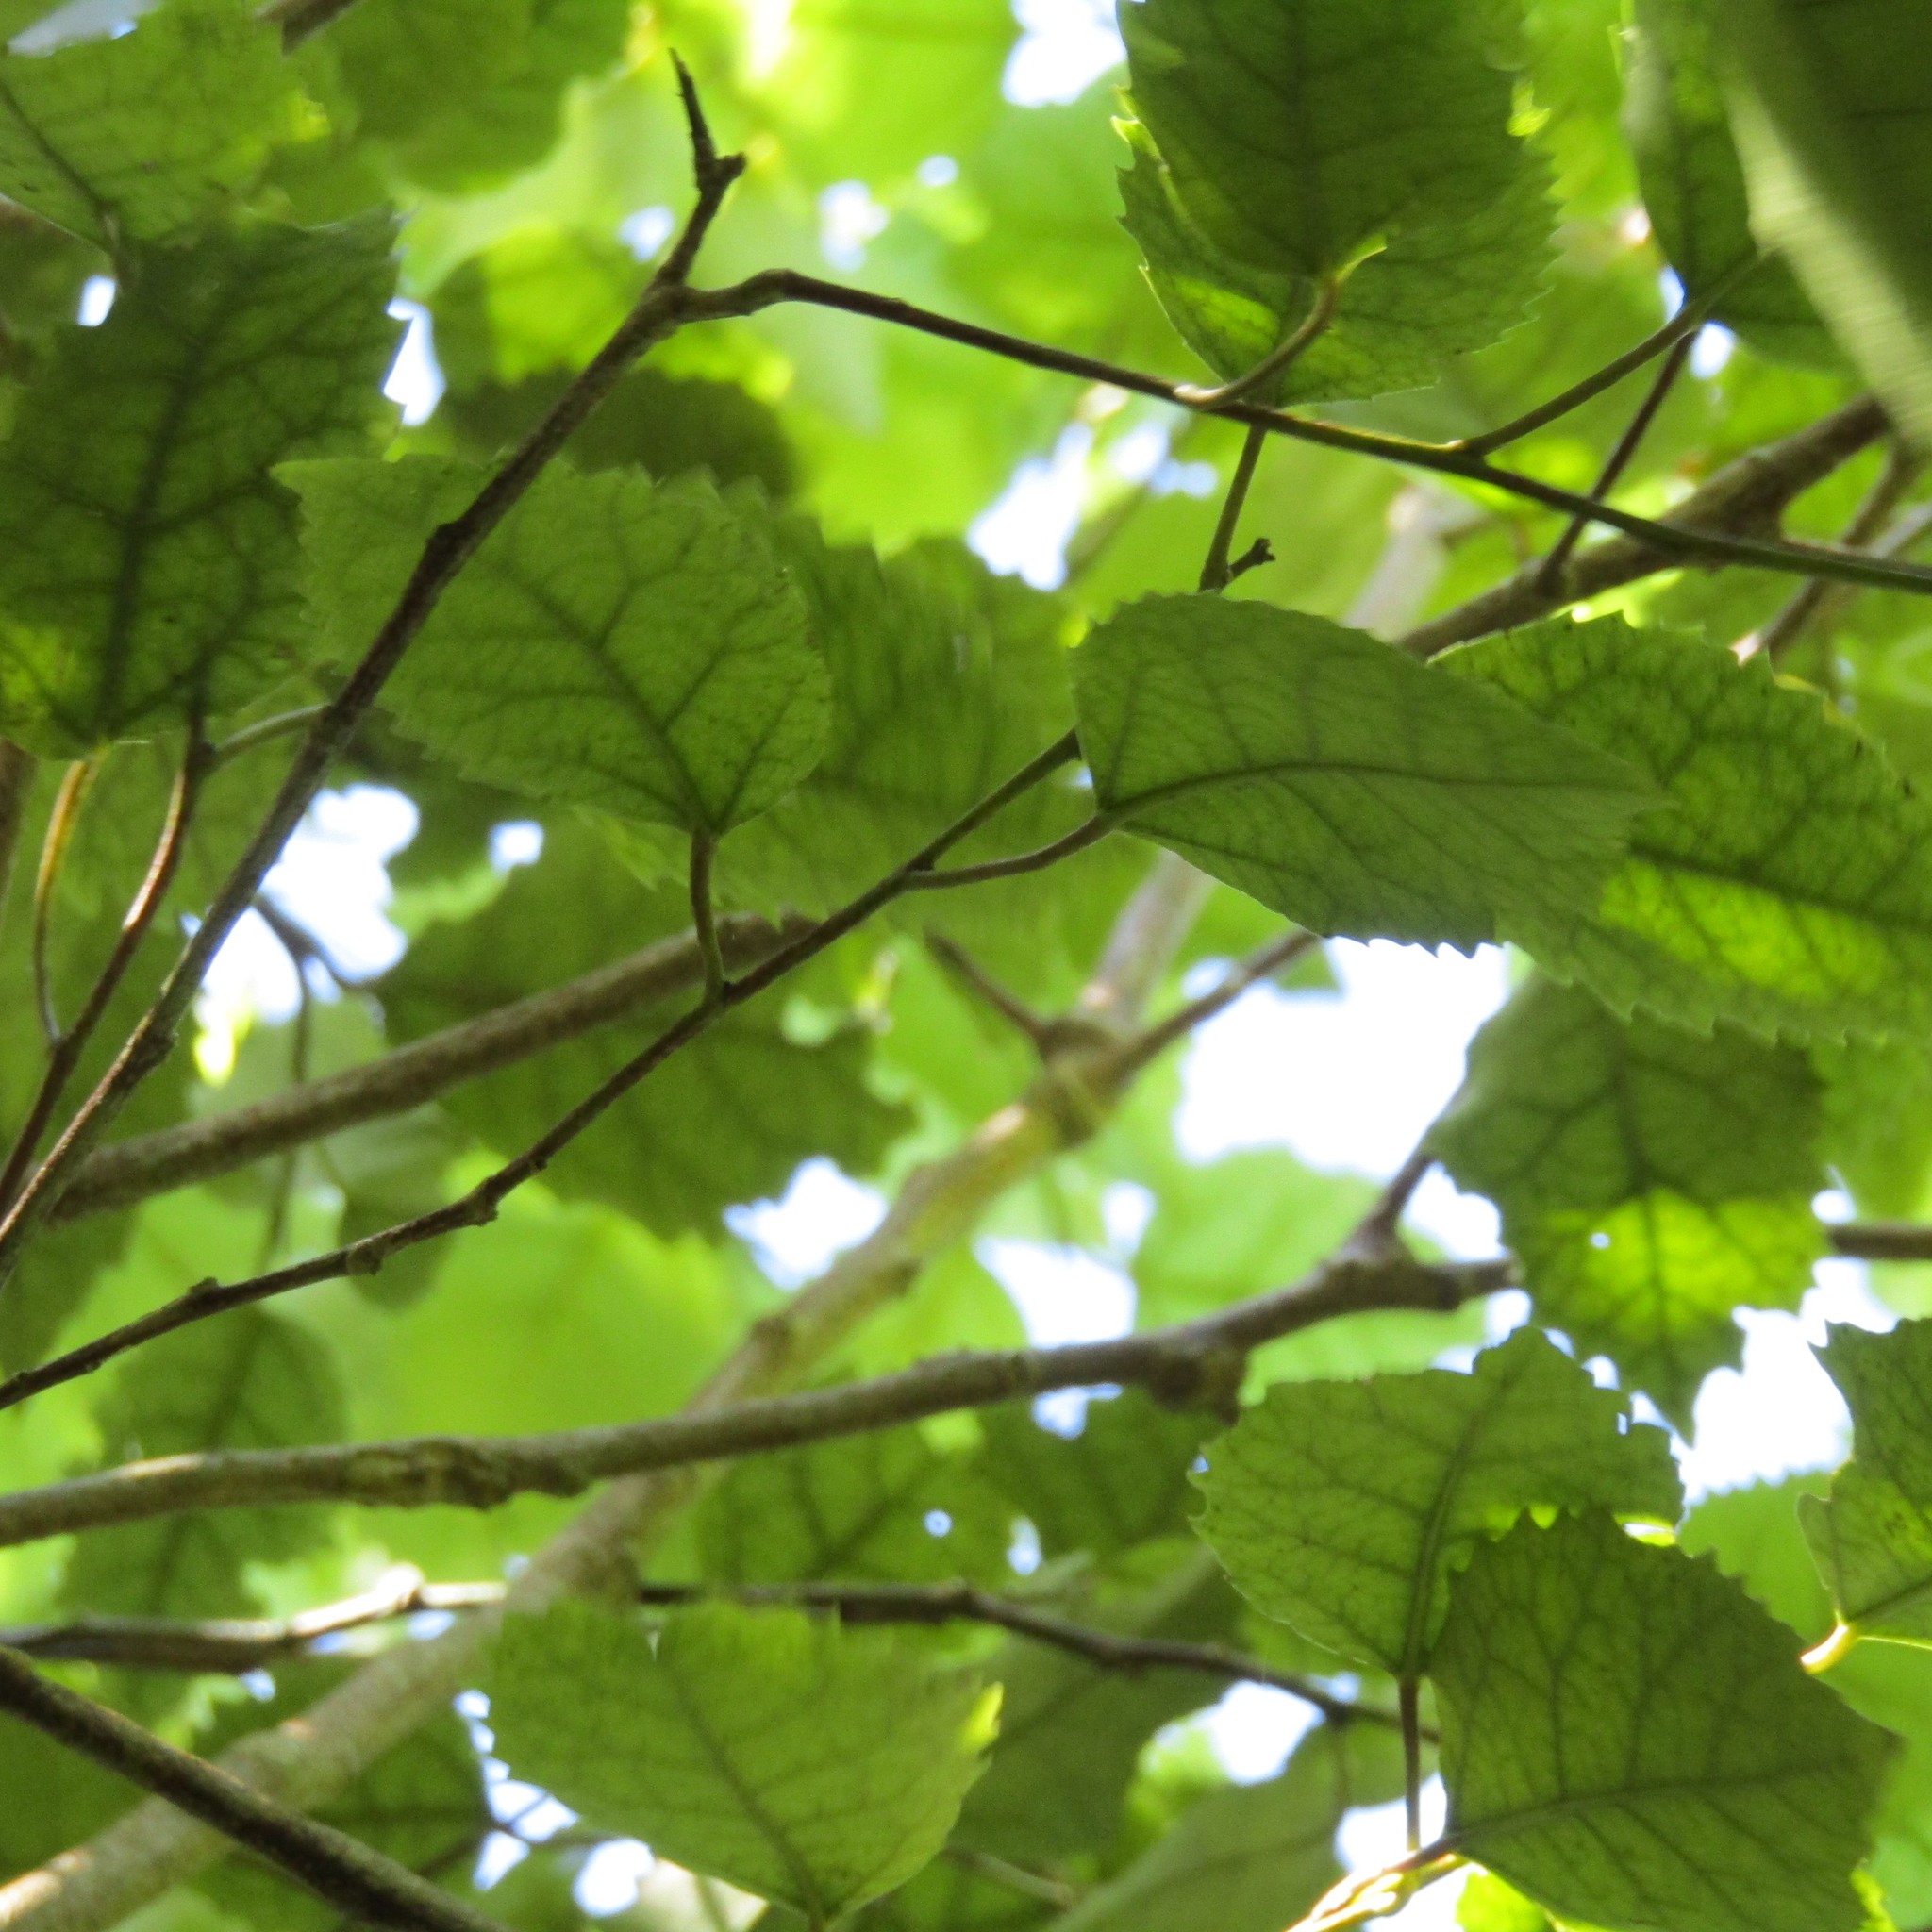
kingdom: Plantae
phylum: Tracheophyta
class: Magnoliopsida
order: Malvales
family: Malvaceae
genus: Hoheria
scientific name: Hoheria populnea
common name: Lacebark
